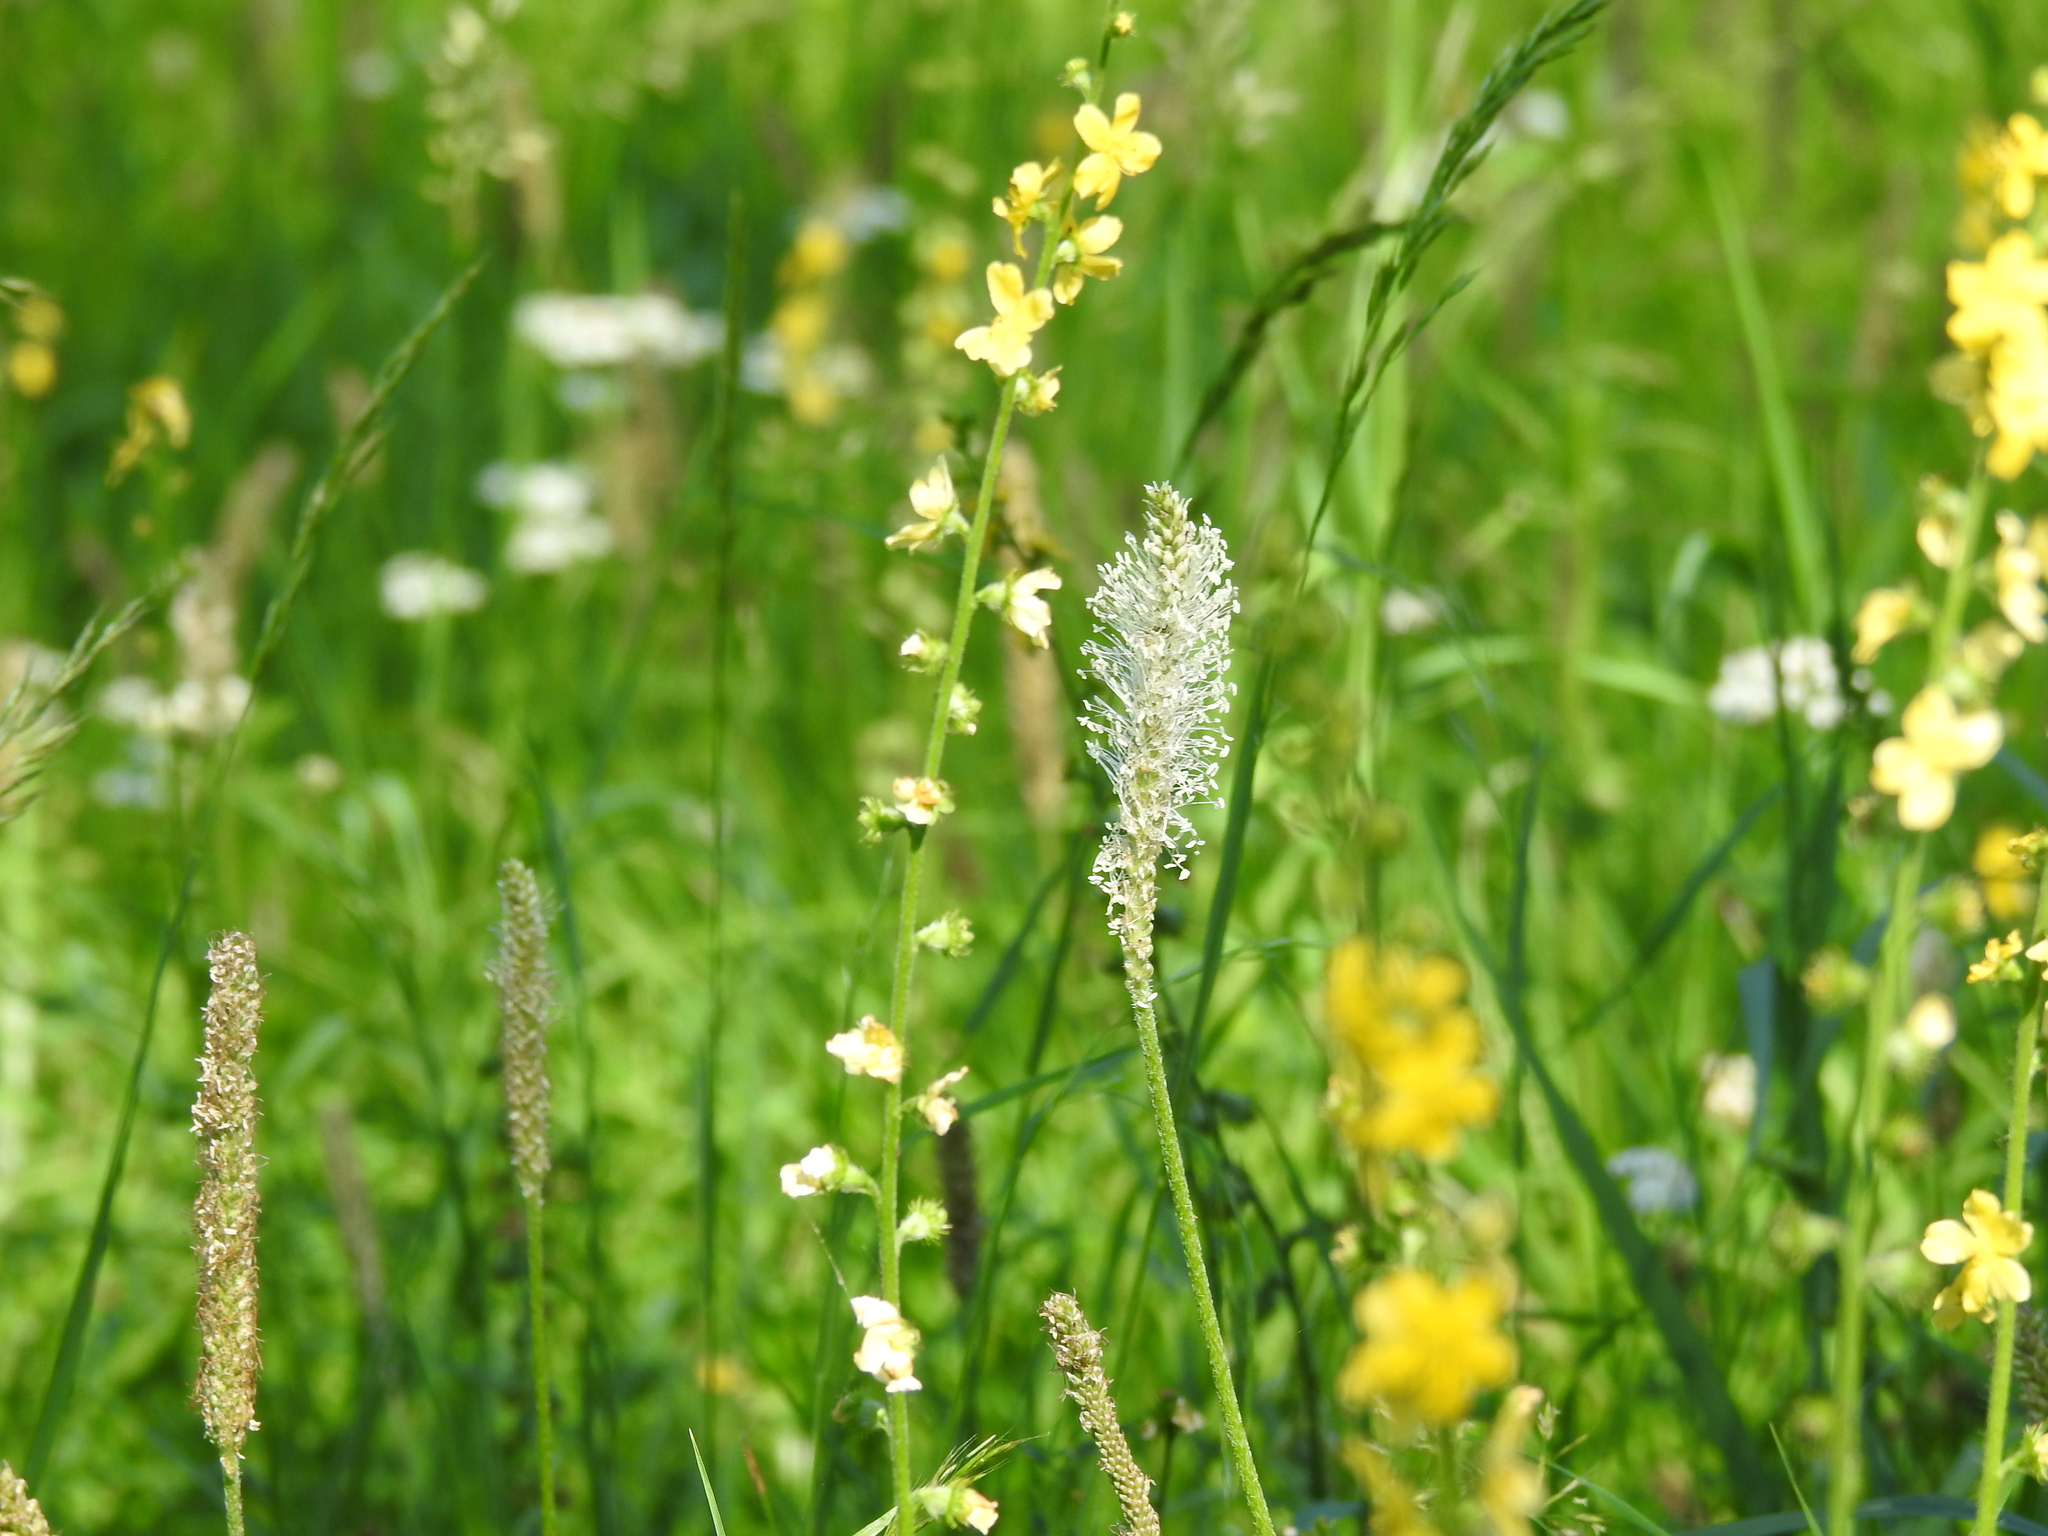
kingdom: Plantae
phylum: Tracheophyta
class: Magnoliopsida
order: Lamiales
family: Plantaginaceae
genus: Plantago
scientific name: Plantago media
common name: Hoary plantain
